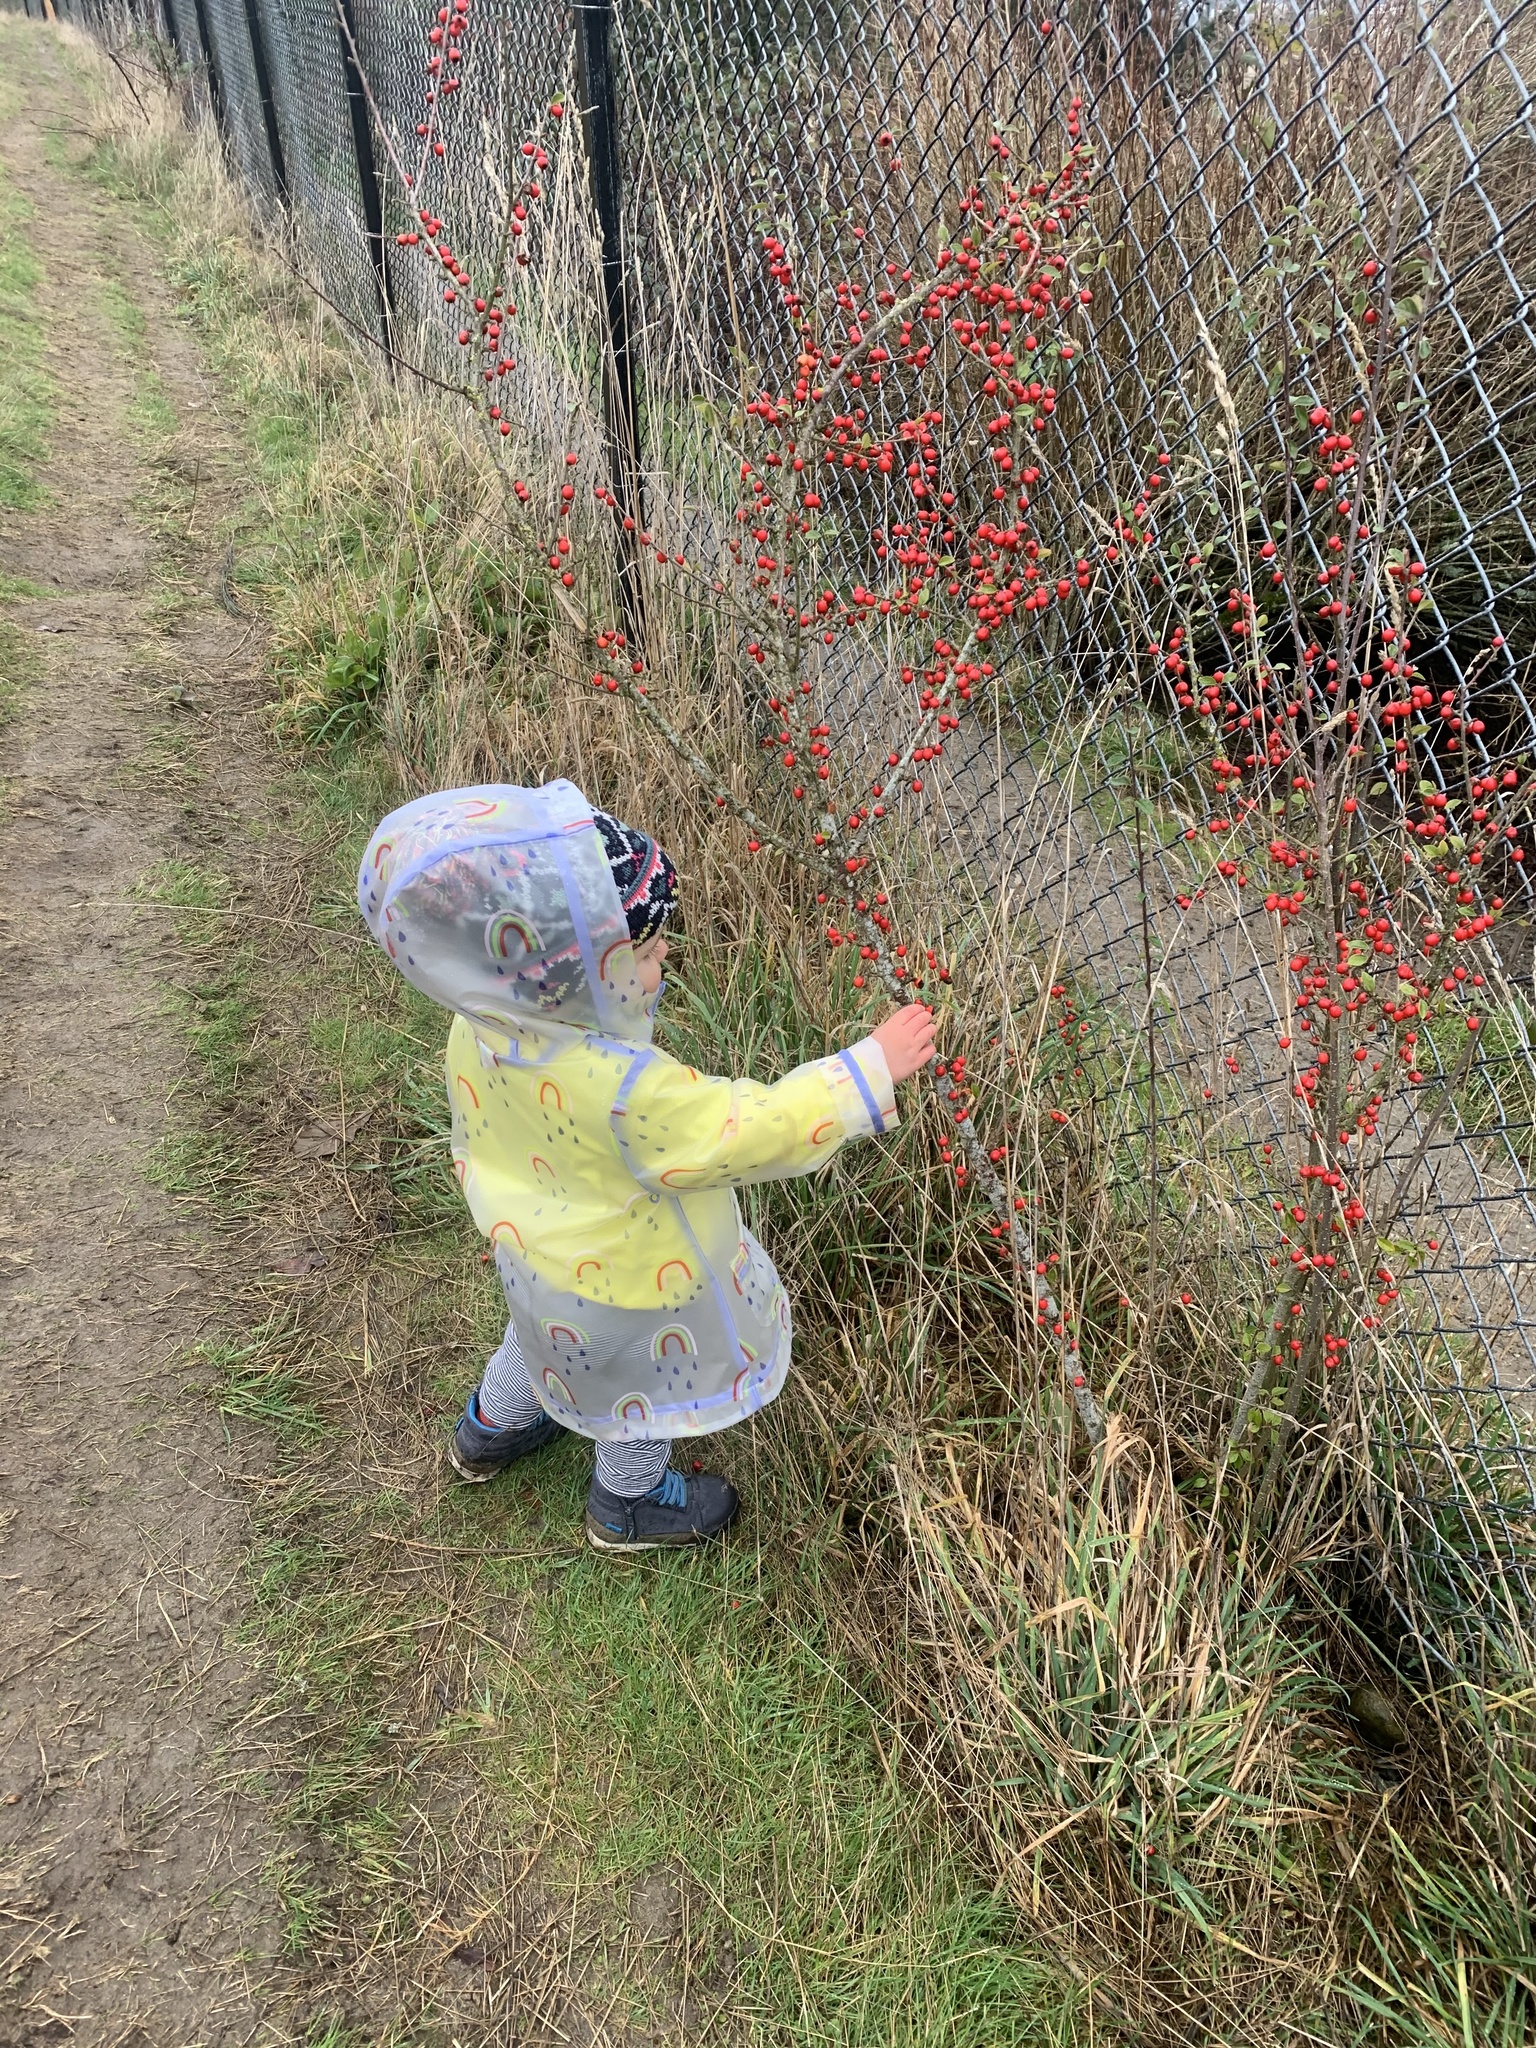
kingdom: Plantae
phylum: Tracheophyta
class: Magnoliopsida
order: Rosales
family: Rosaceae
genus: Cotoneaster
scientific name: Cotoneaster simonsii
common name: Himalayan cotoneaster
